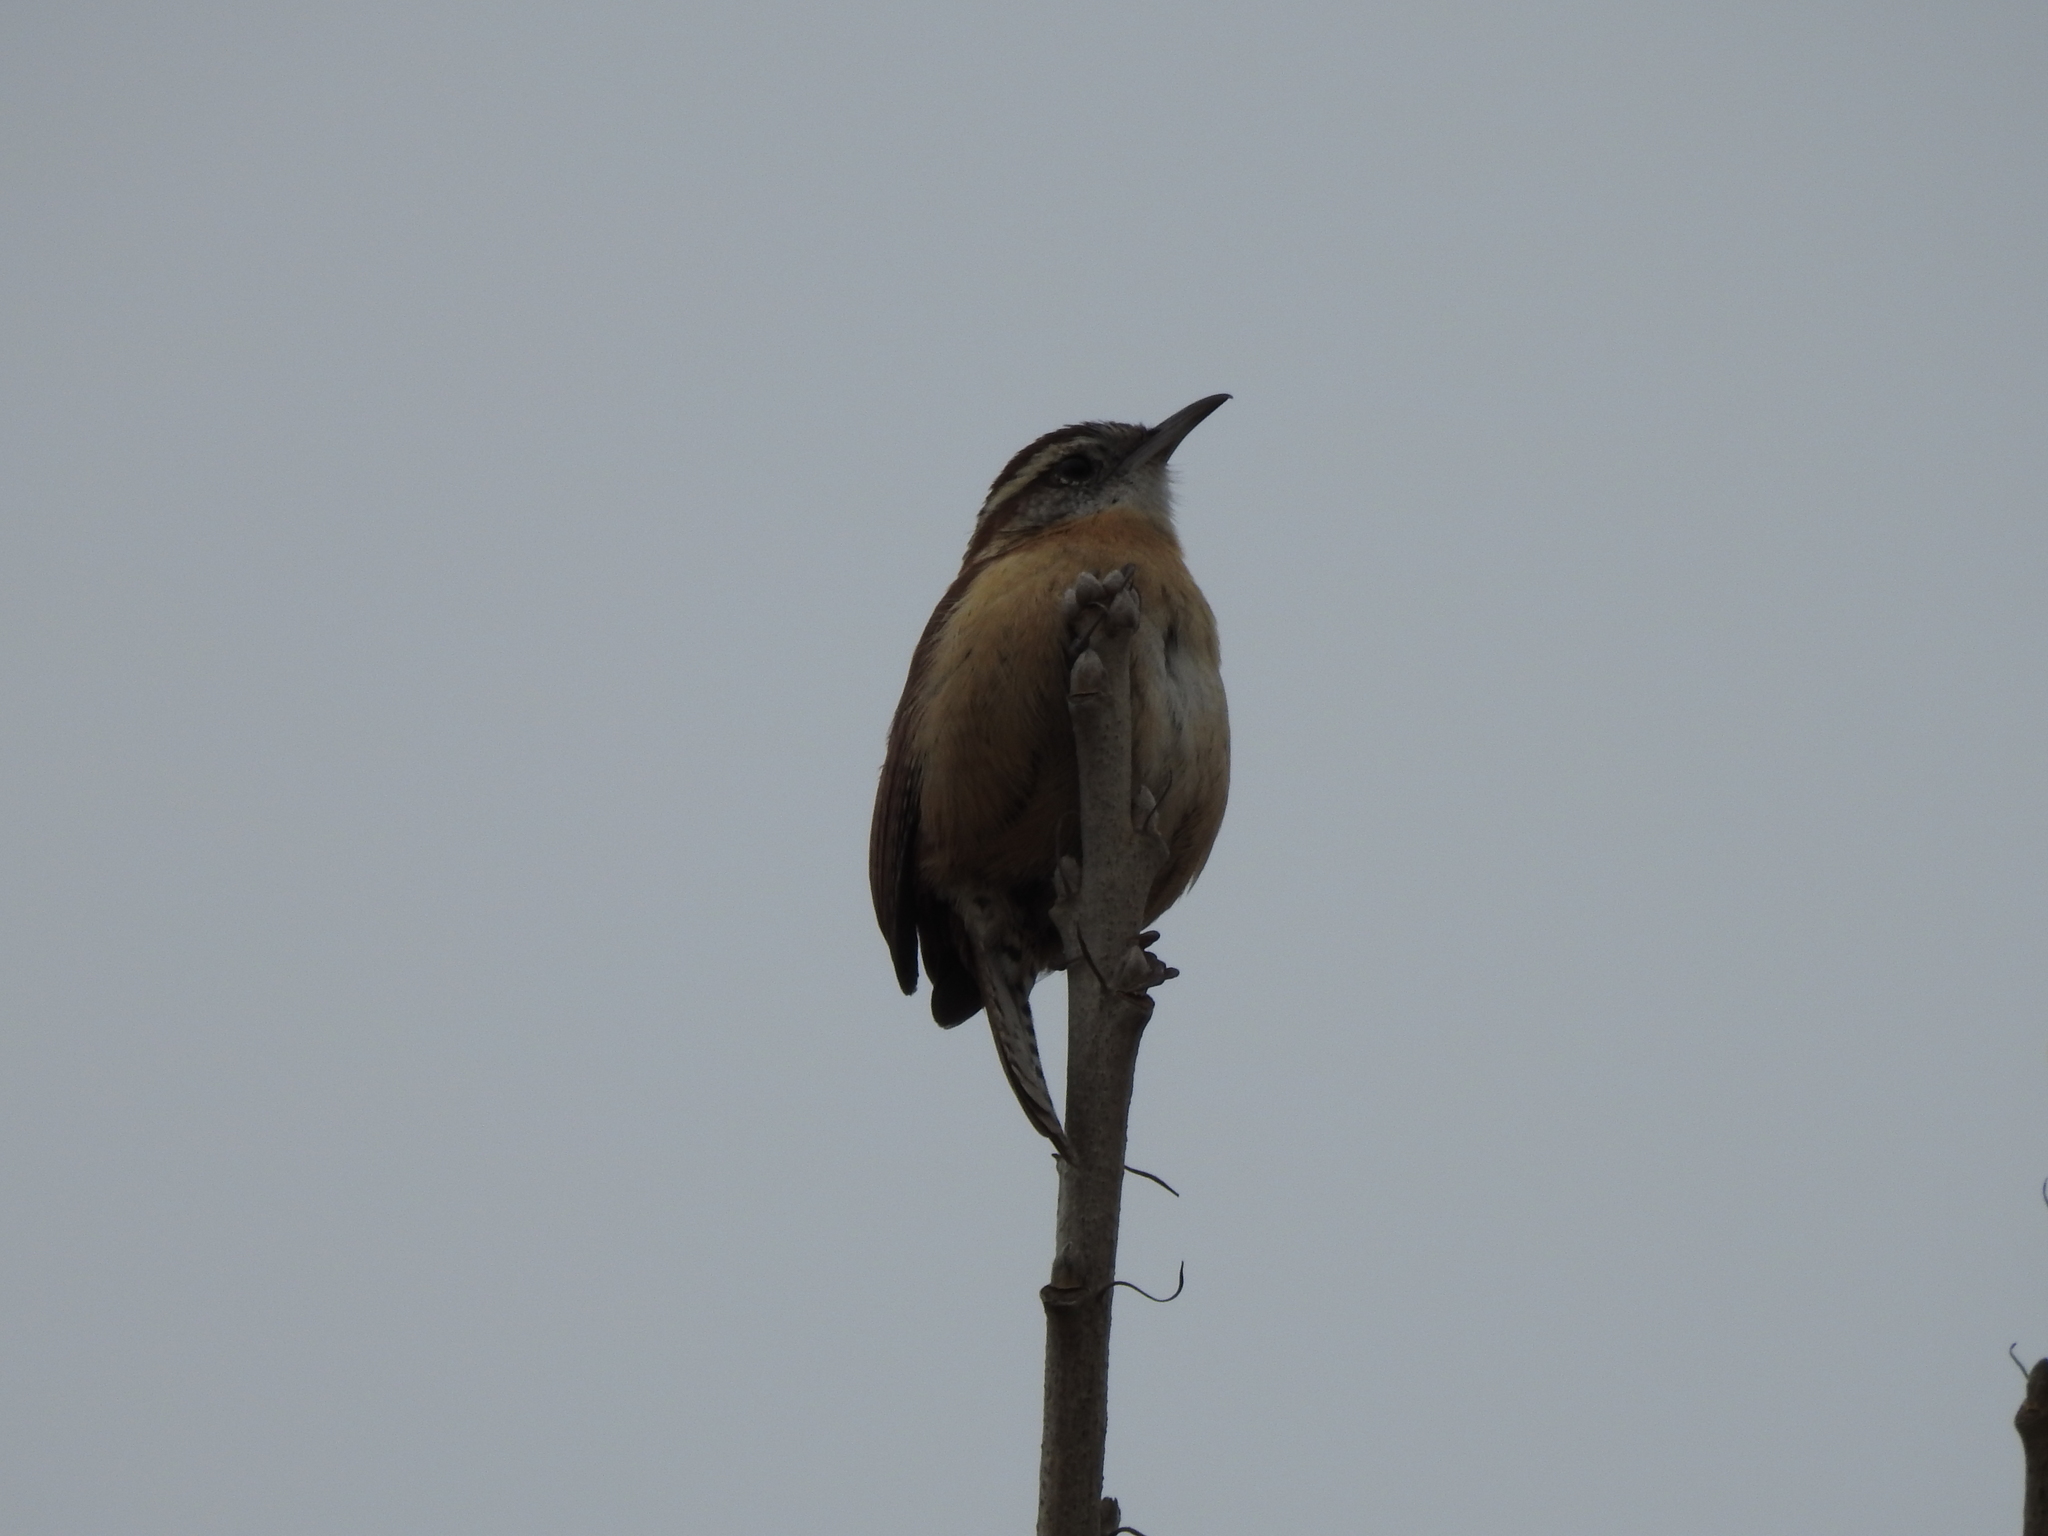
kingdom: Animalia
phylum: Chordata
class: Aves
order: Passeriformes
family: Troglodytidae
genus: Thryothorus
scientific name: Thryothorus ludovicianus
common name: Carolina wren
